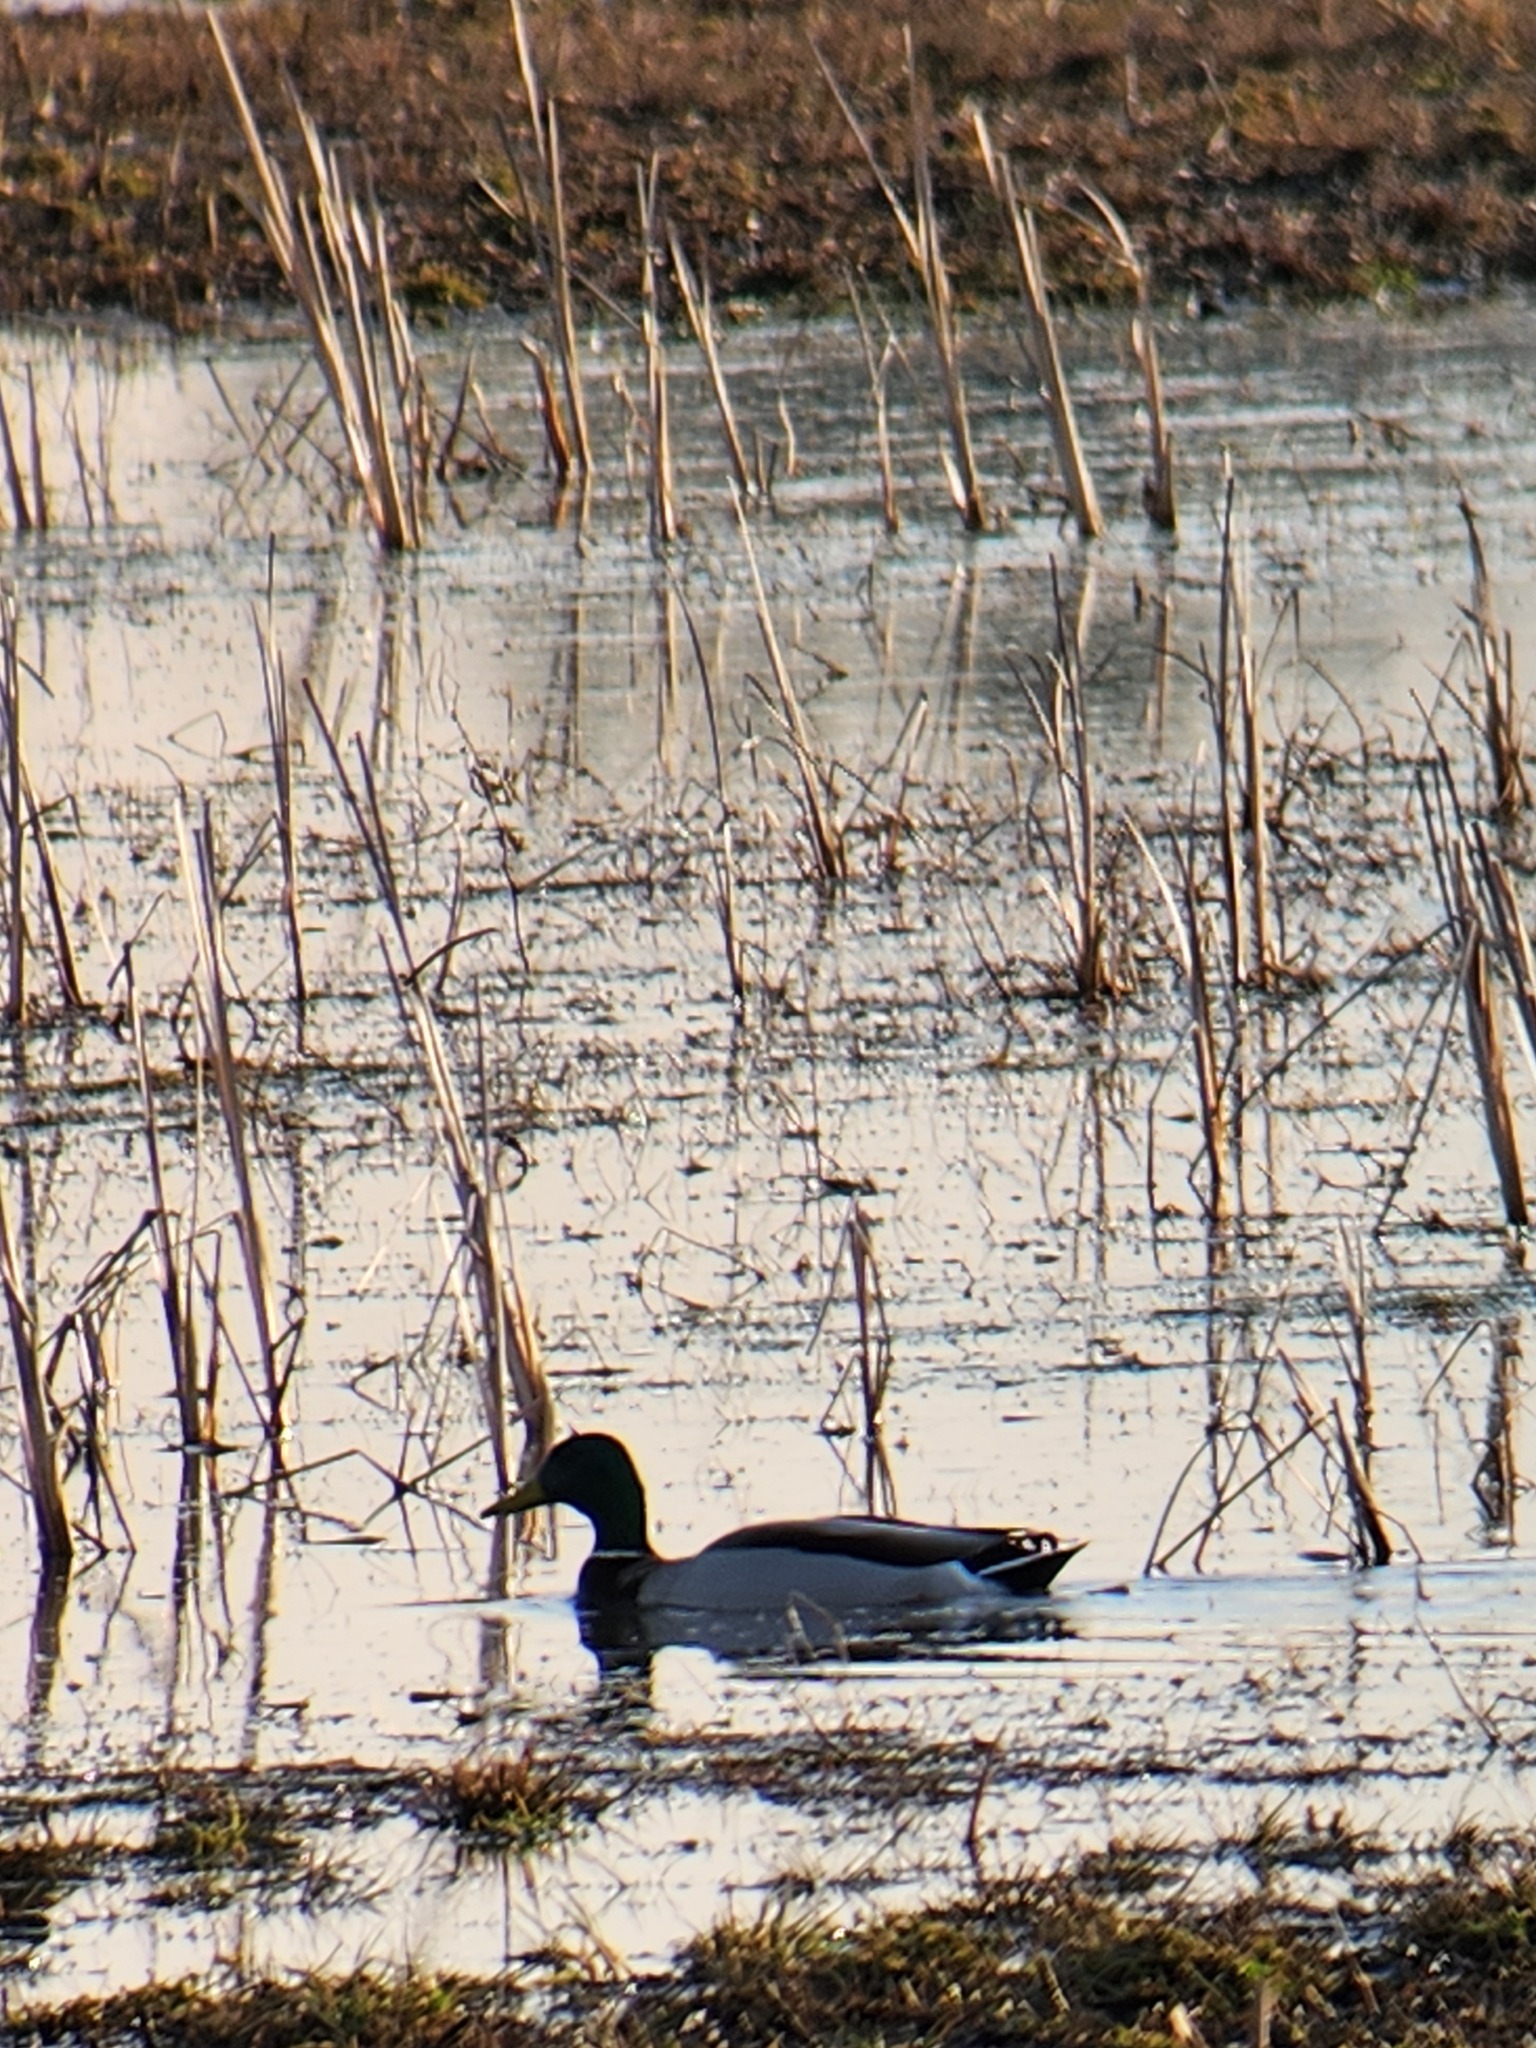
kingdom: Animalia
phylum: Chordata
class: Aves
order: Anseriformes
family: Anatidae
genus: Anas
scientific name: Anas platyrhynchos
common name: Mallard
